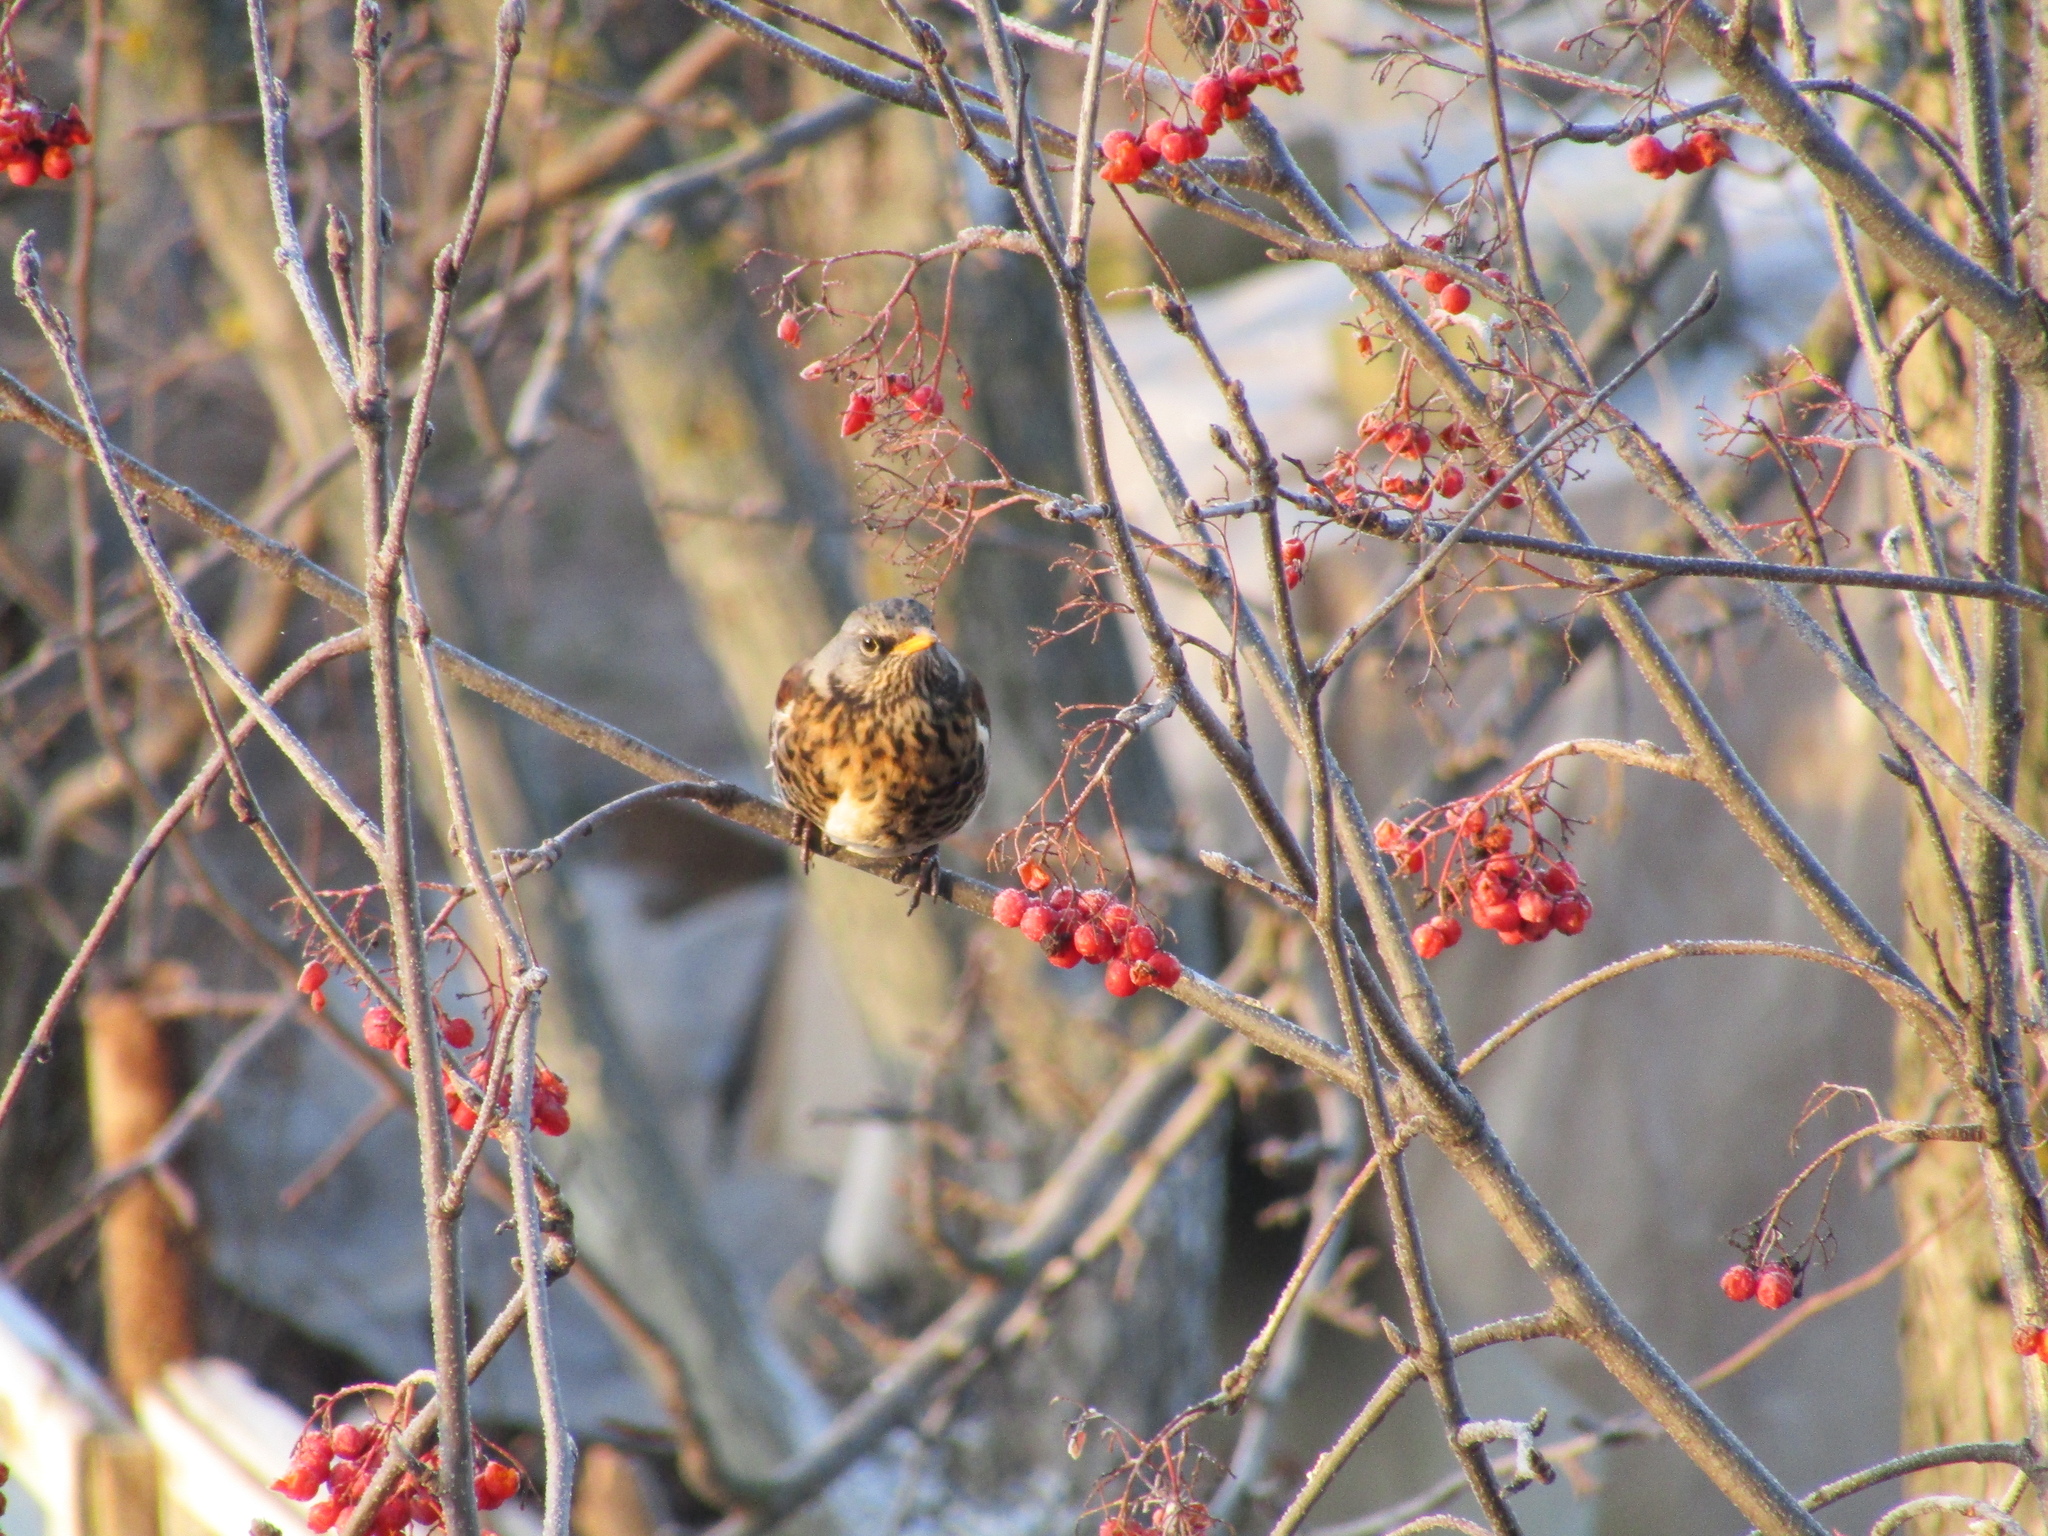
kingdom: Animalia
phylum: Chordata
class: Aves
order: Passeriformes
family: Turdidae
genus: Turdus
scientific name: Turdus pilaris
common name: Fieldfare
